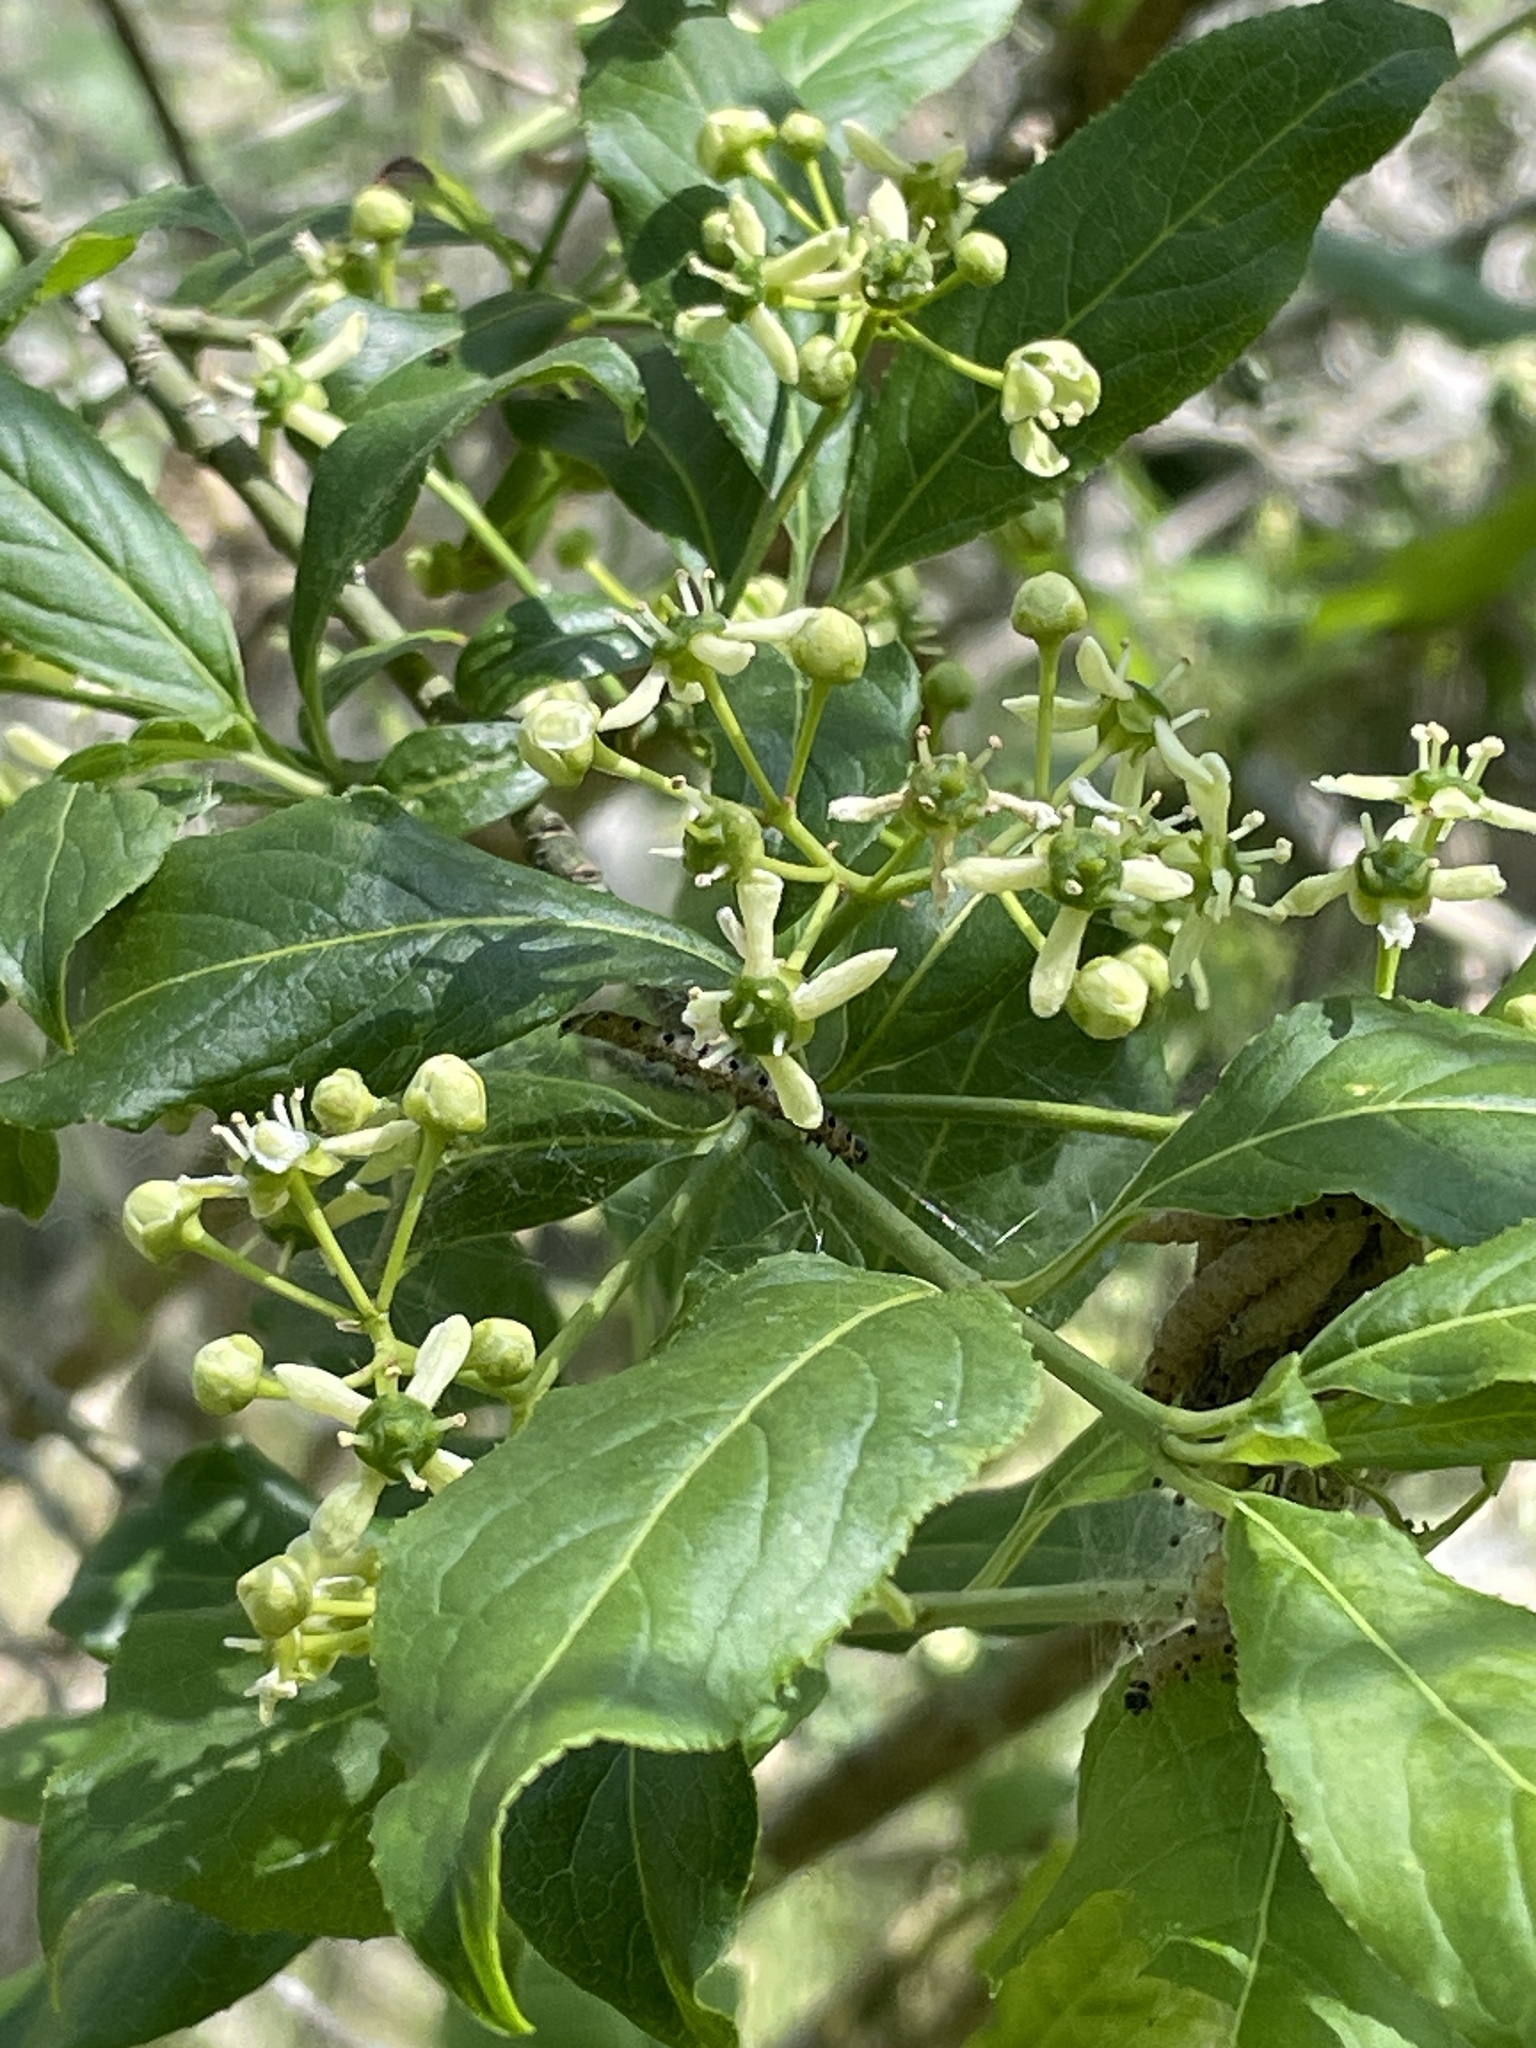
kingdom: Plantae
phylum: Tracheophyta
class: Magnoliopsida
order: Celastrales
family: Celastraceae
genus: Euonymus
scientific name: Euonymus europaeus
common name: Spindle
